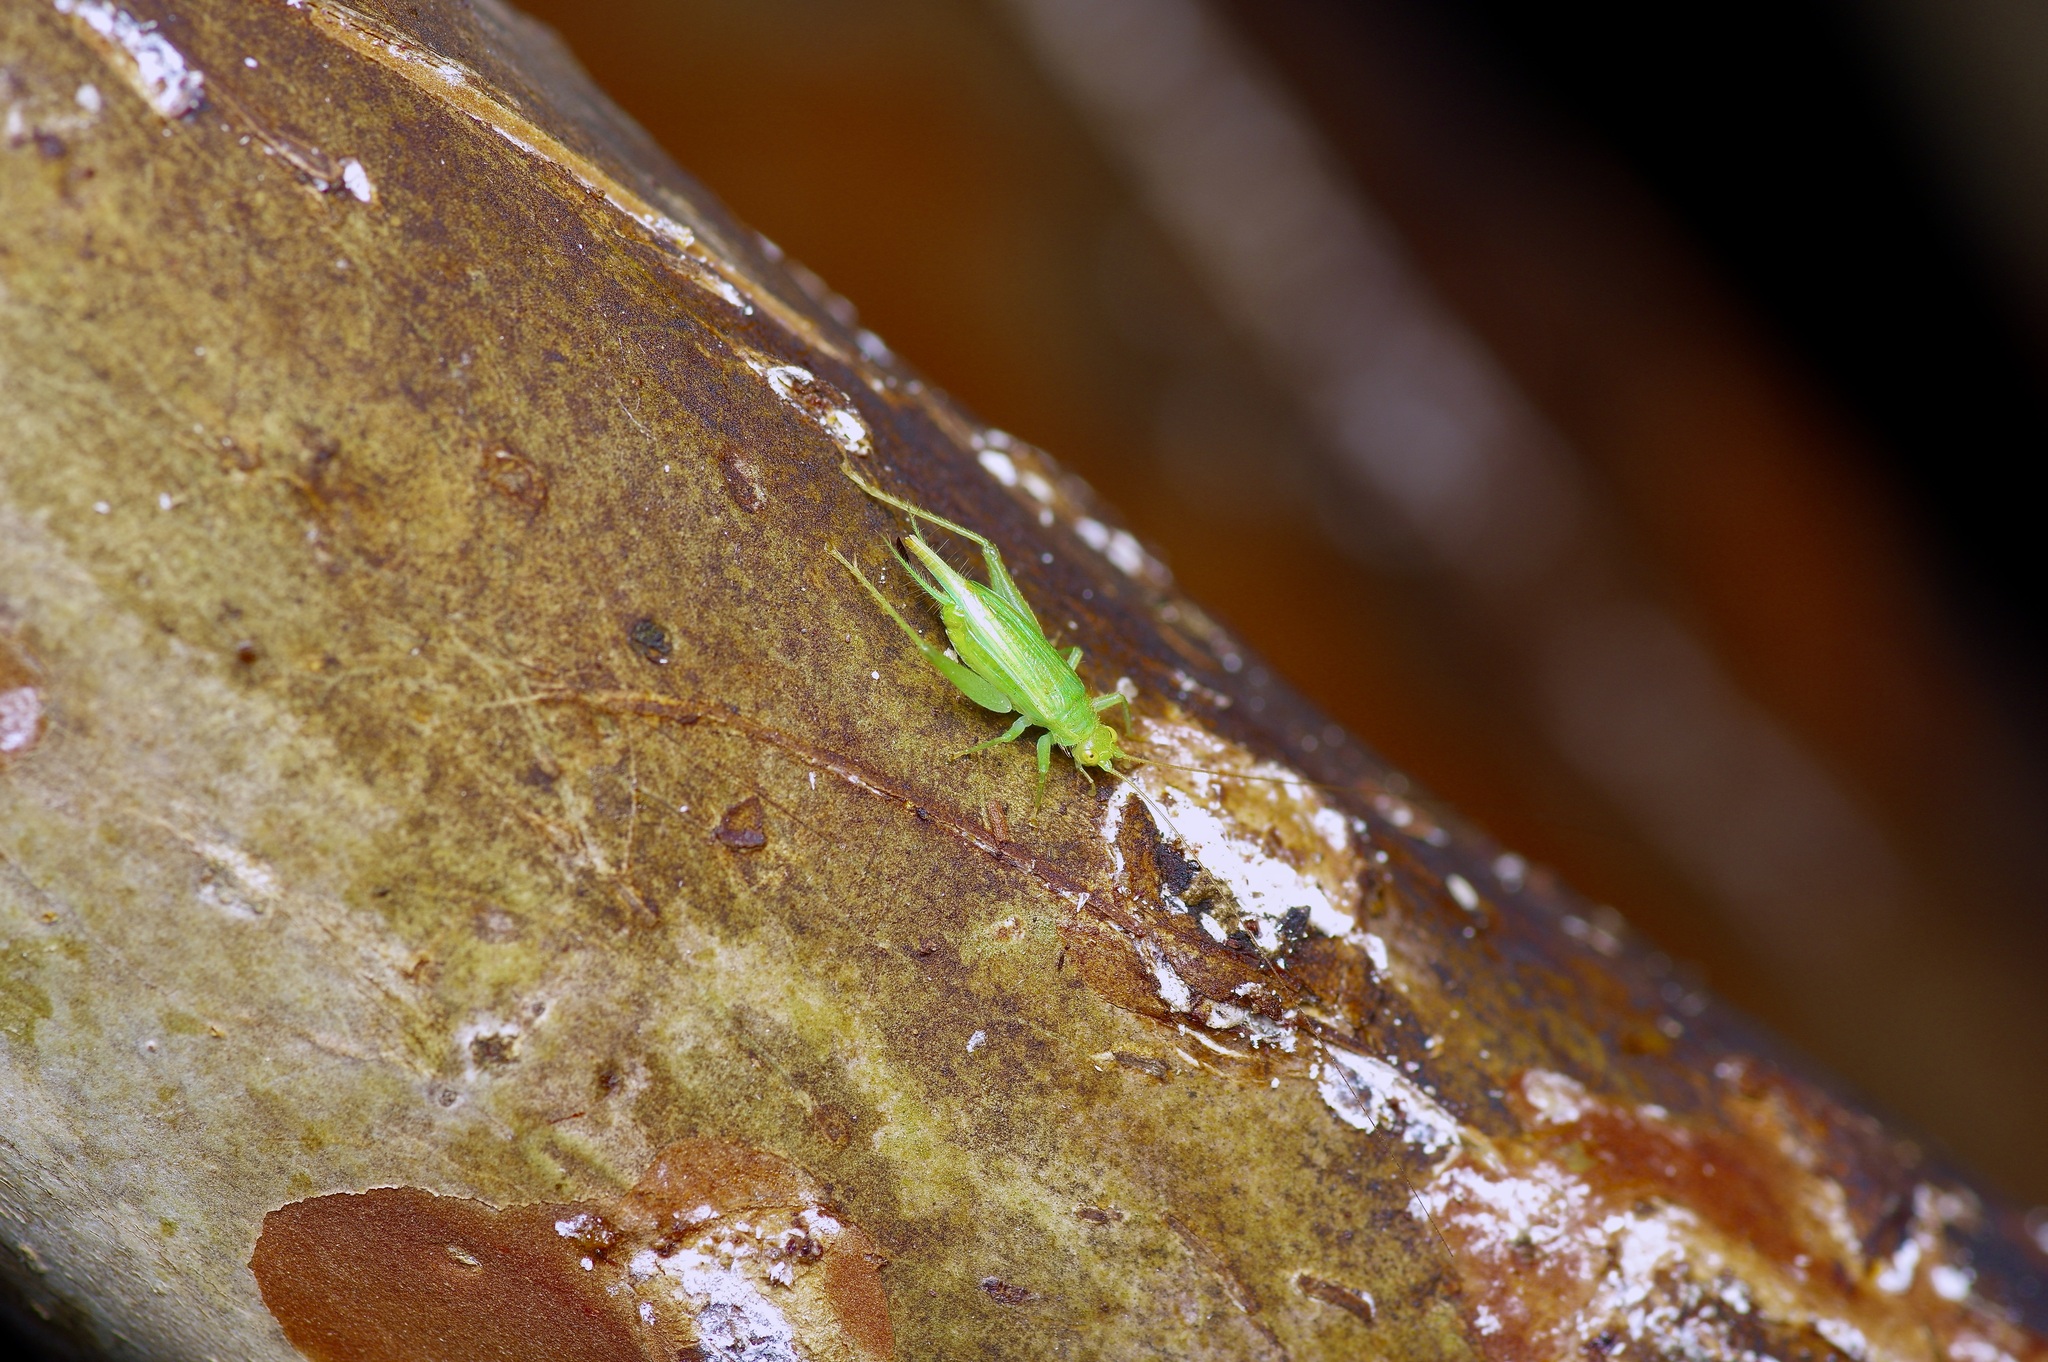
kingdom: Animalia
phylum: Arthropoda
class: Insecta
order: Orthoptera
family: Trigonidiidae
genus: Cyrtoxipha
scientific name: Cyrtoxipha columbiana
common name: Columbian trig
